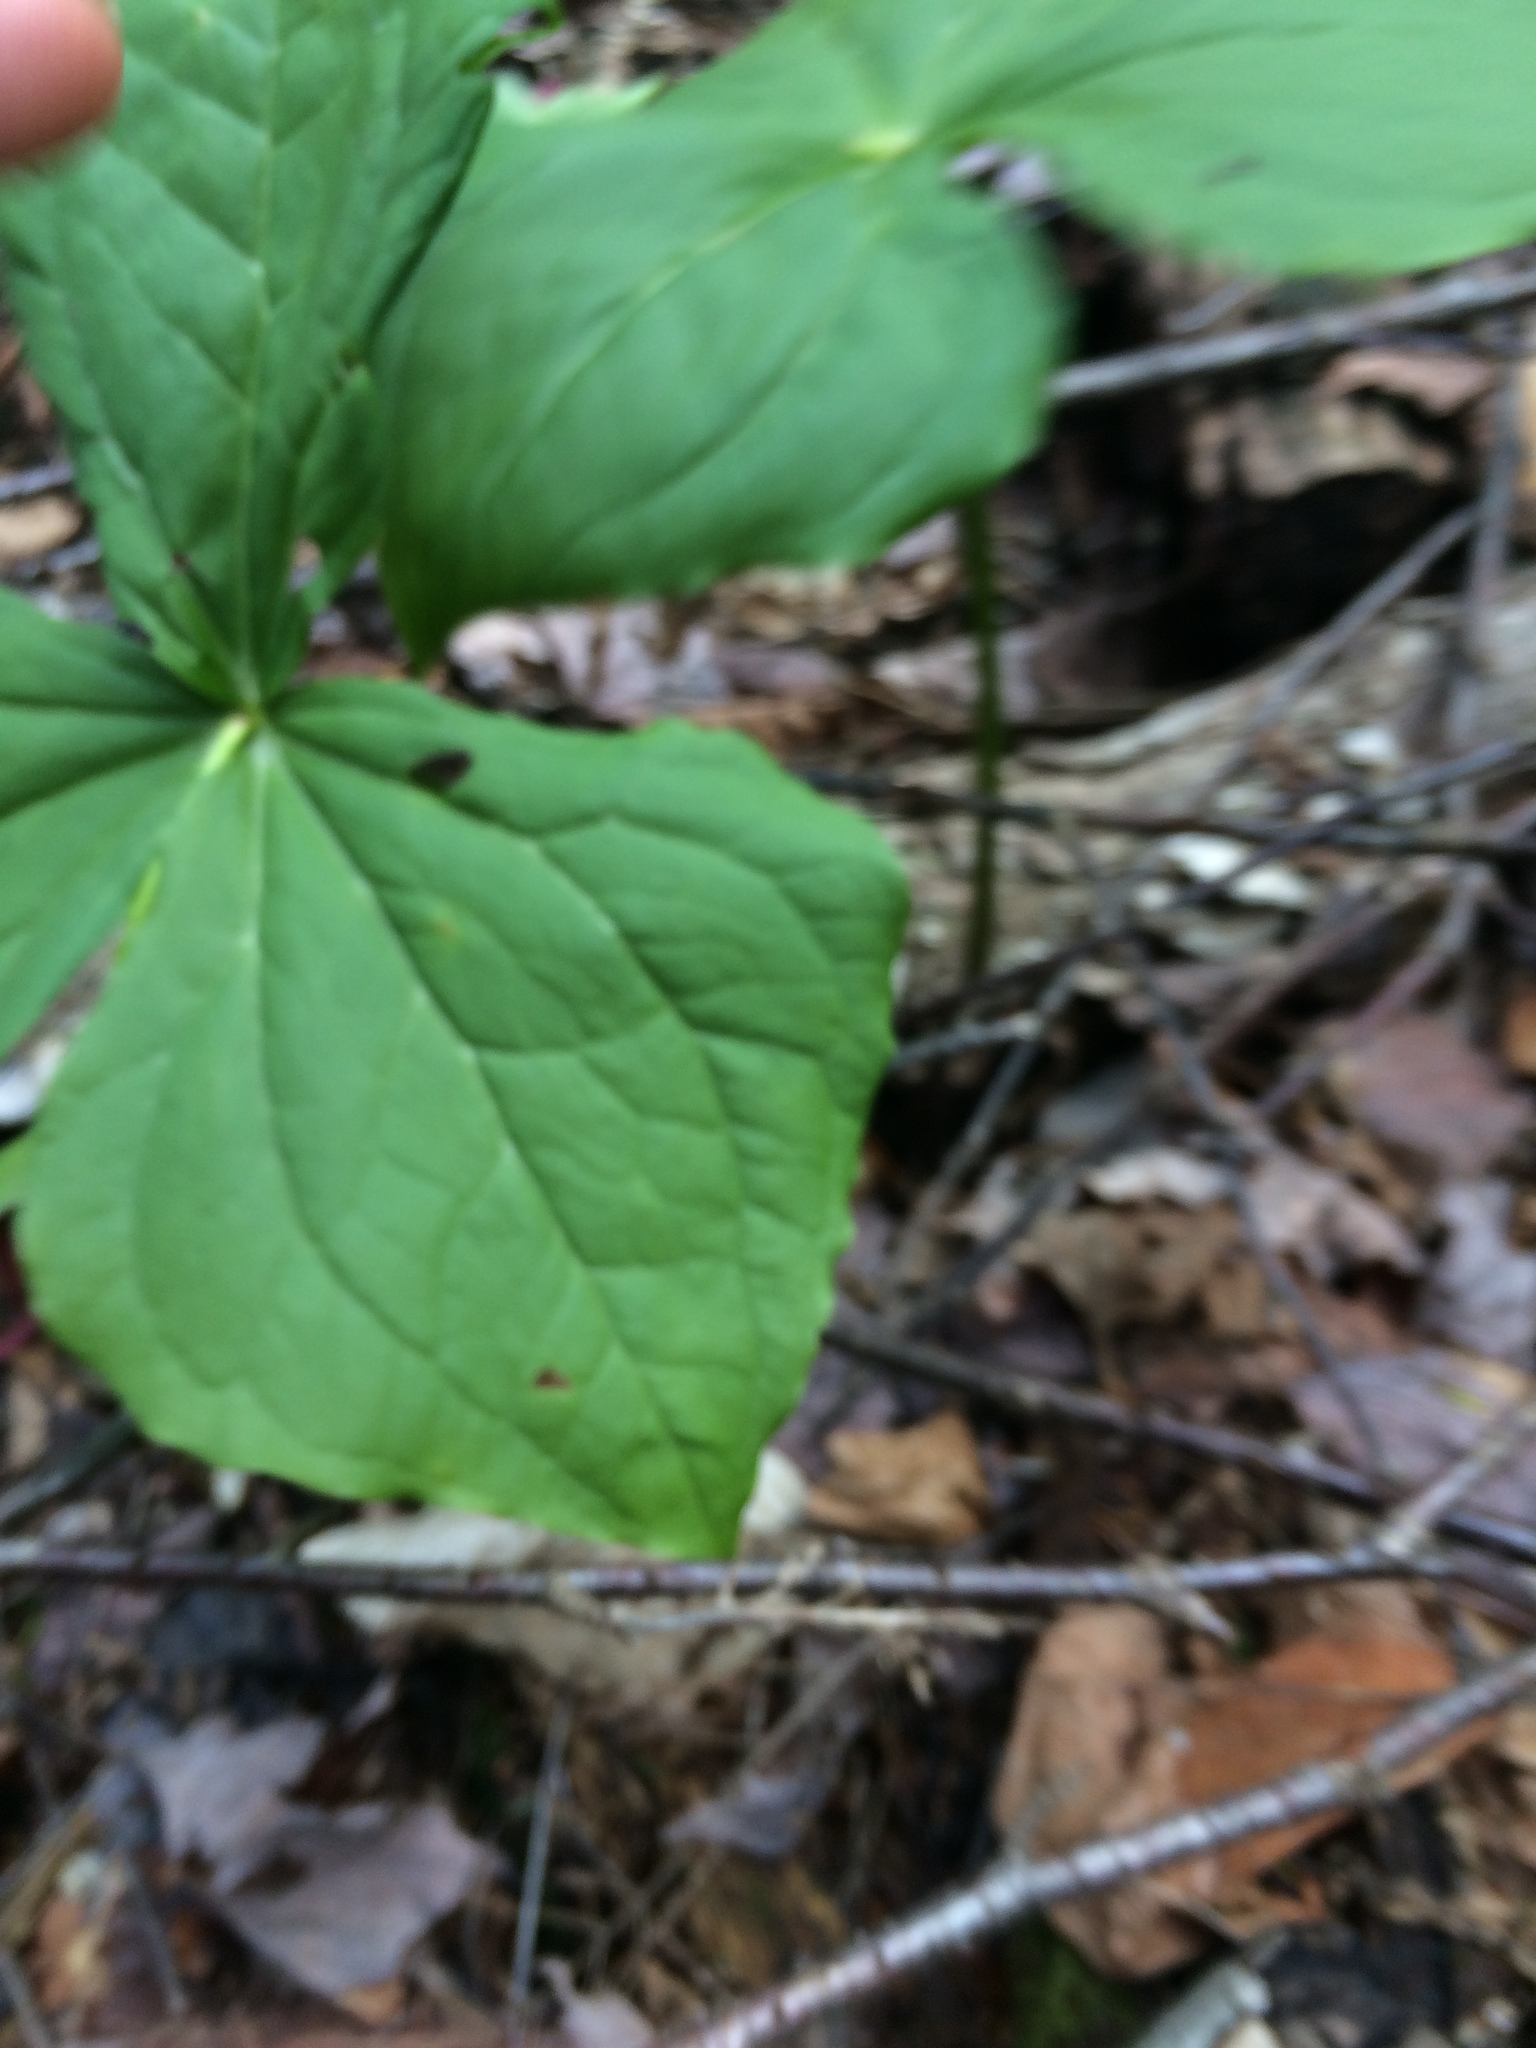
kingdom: Plantae
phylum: Tracheophyta
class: Liliopsida
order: Liliales
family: Melanthiaceae
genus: Trillium
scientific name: Trillium erectum
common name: Purple trillium
